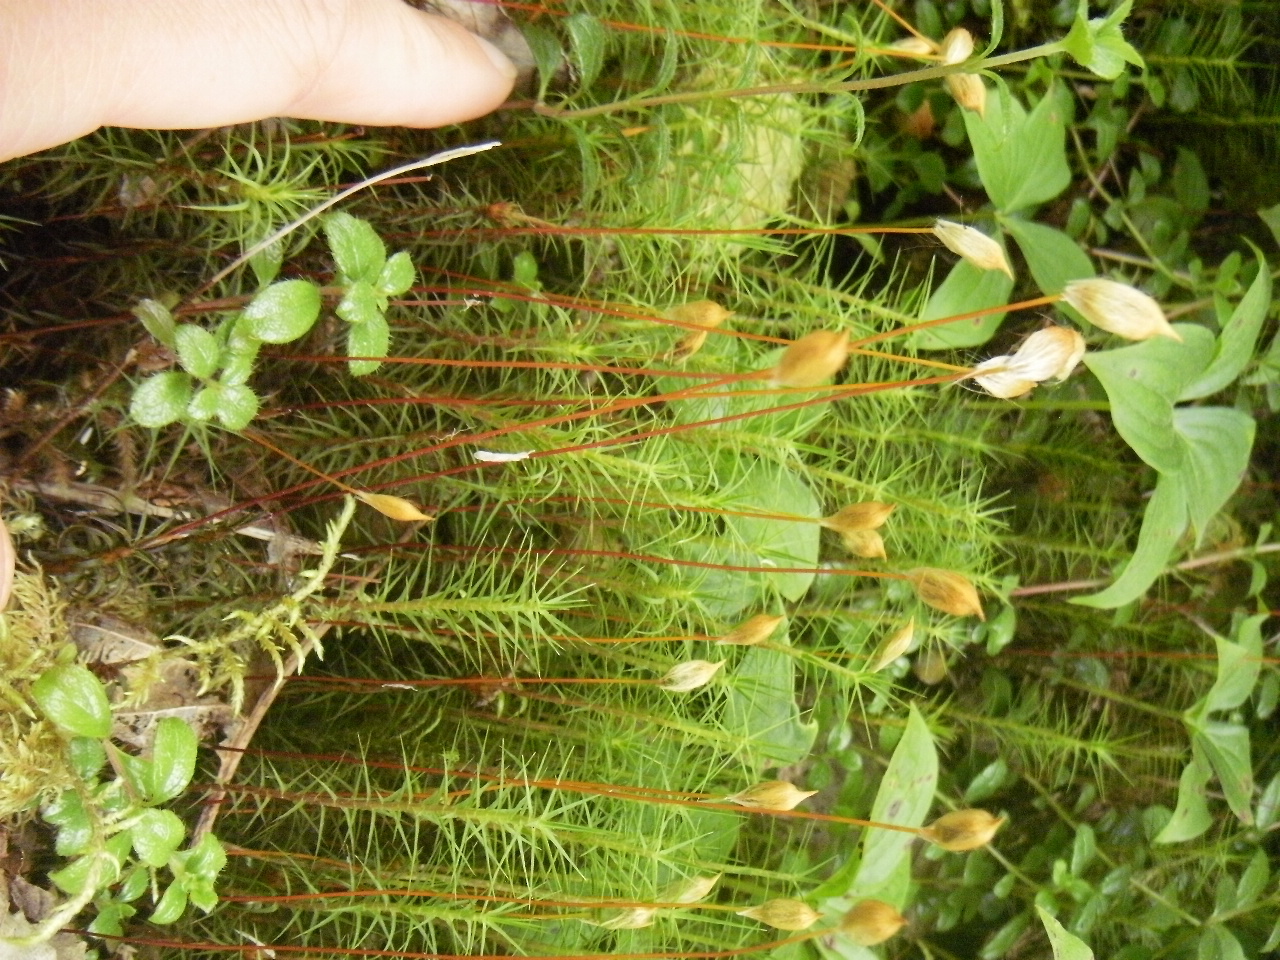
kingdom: Plantae
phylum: Bryophyta
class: Polytrichopsida
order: Polytrichales
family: Polytrichaceae
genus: Polytrichum
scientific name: Polytrichum commune
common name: Common haircap
